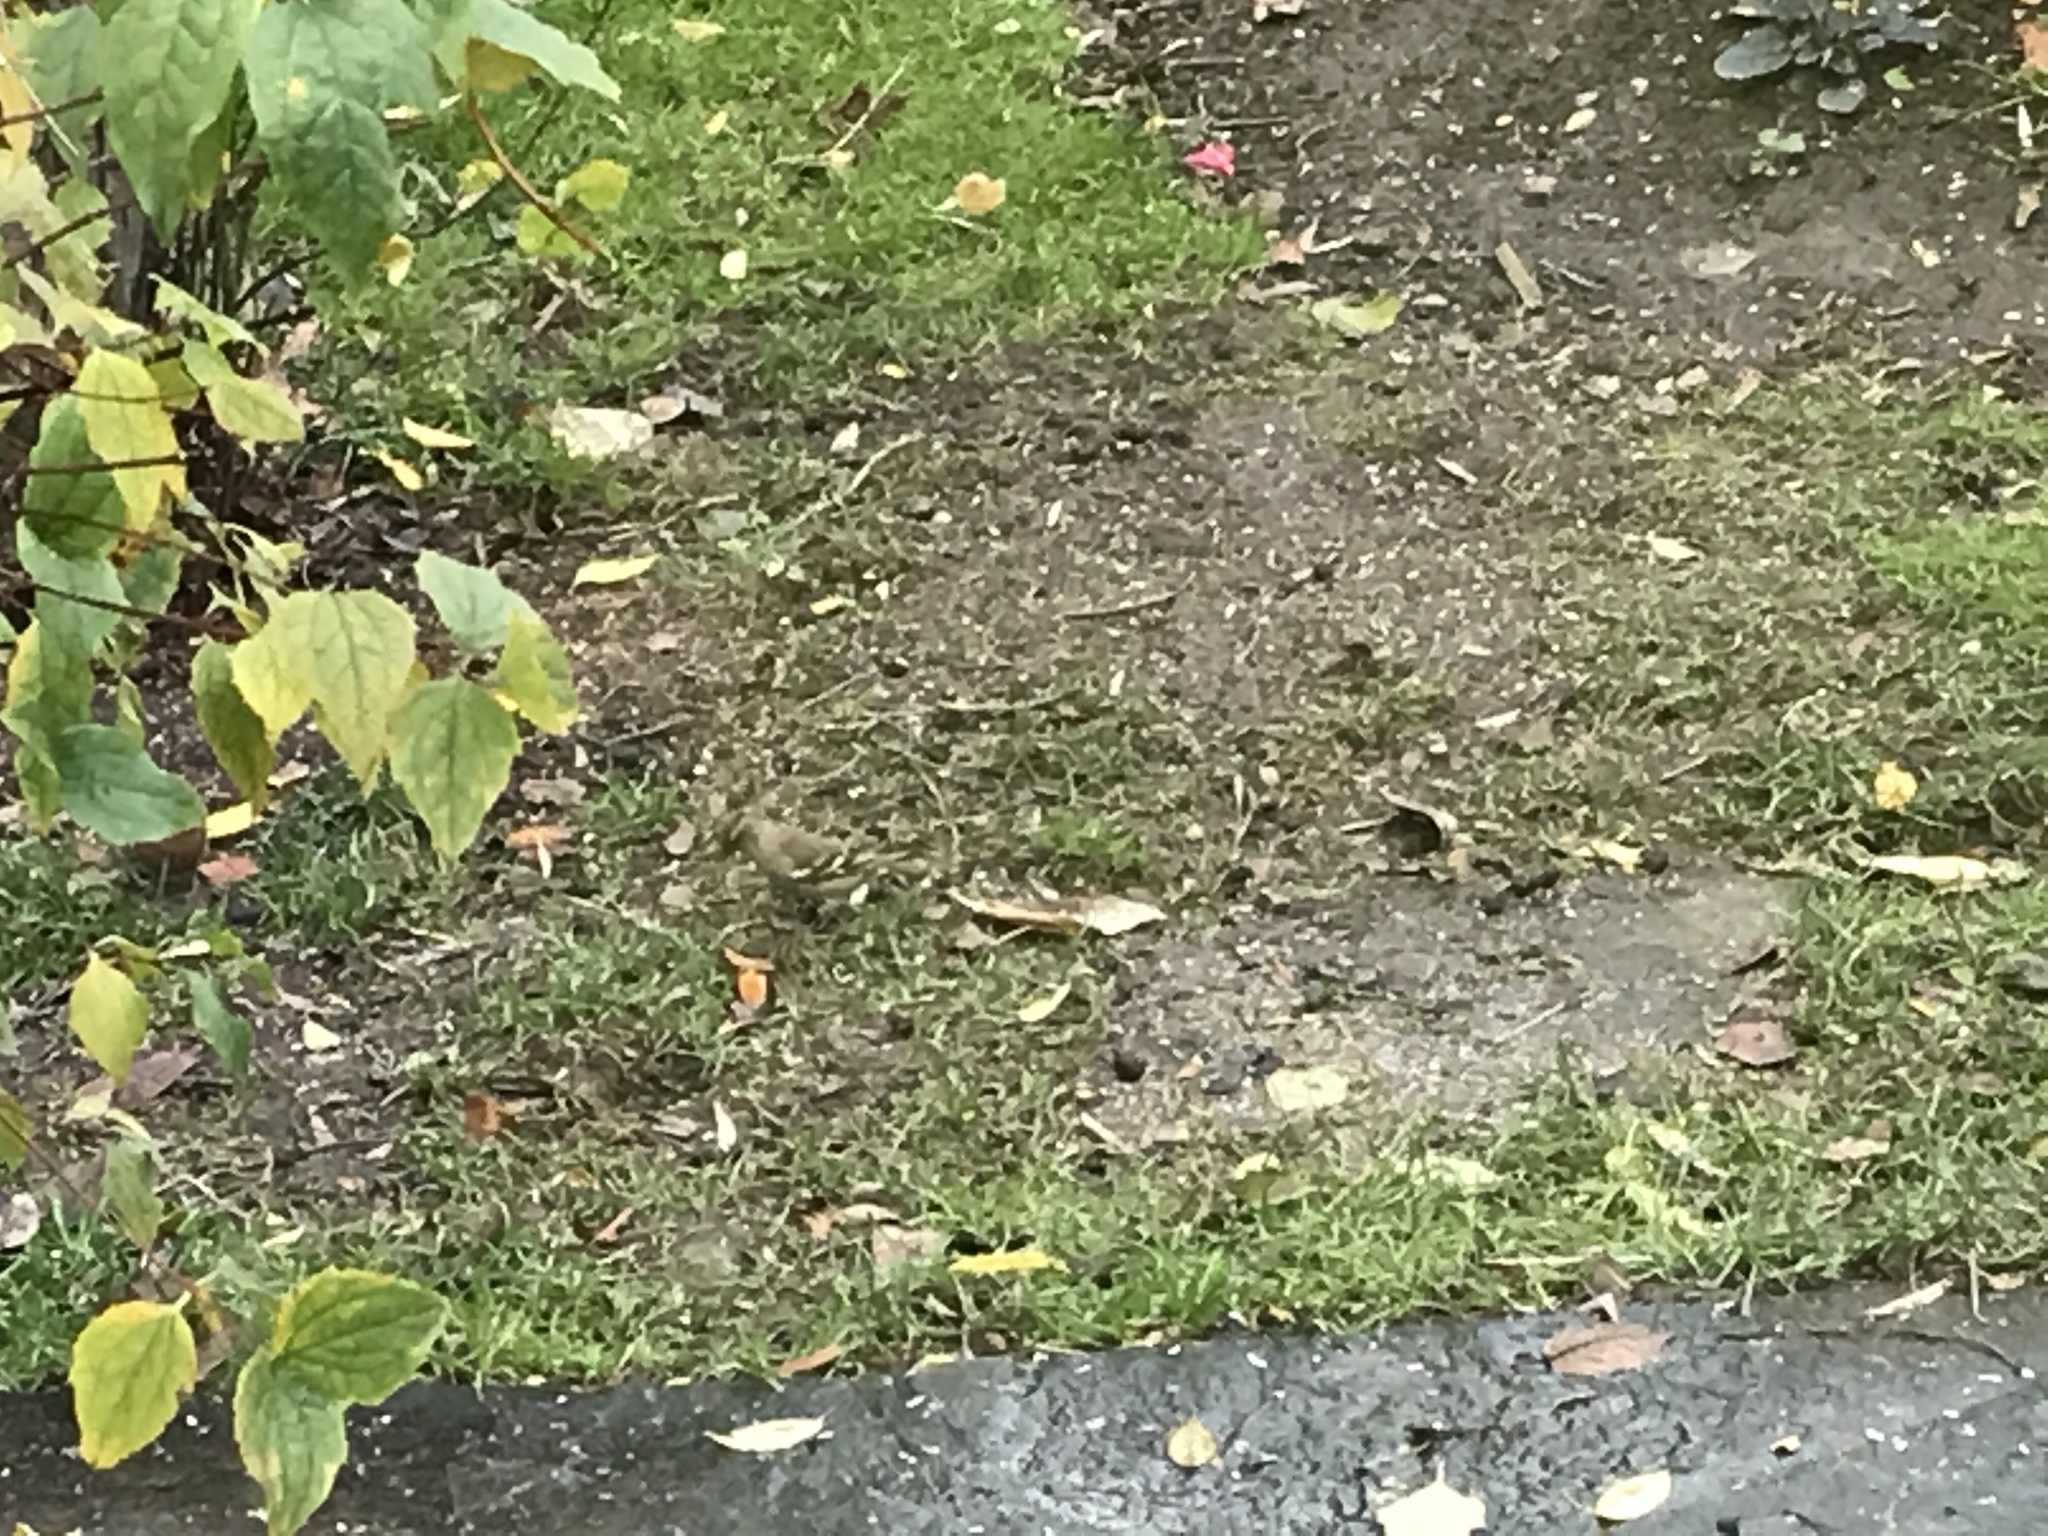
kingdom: Animalia
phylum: Chordata
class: Aves
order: Passeriformes
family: Fringillidae
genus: Fringilla
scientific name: Fringilla coelebs
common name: Common chaffinch
